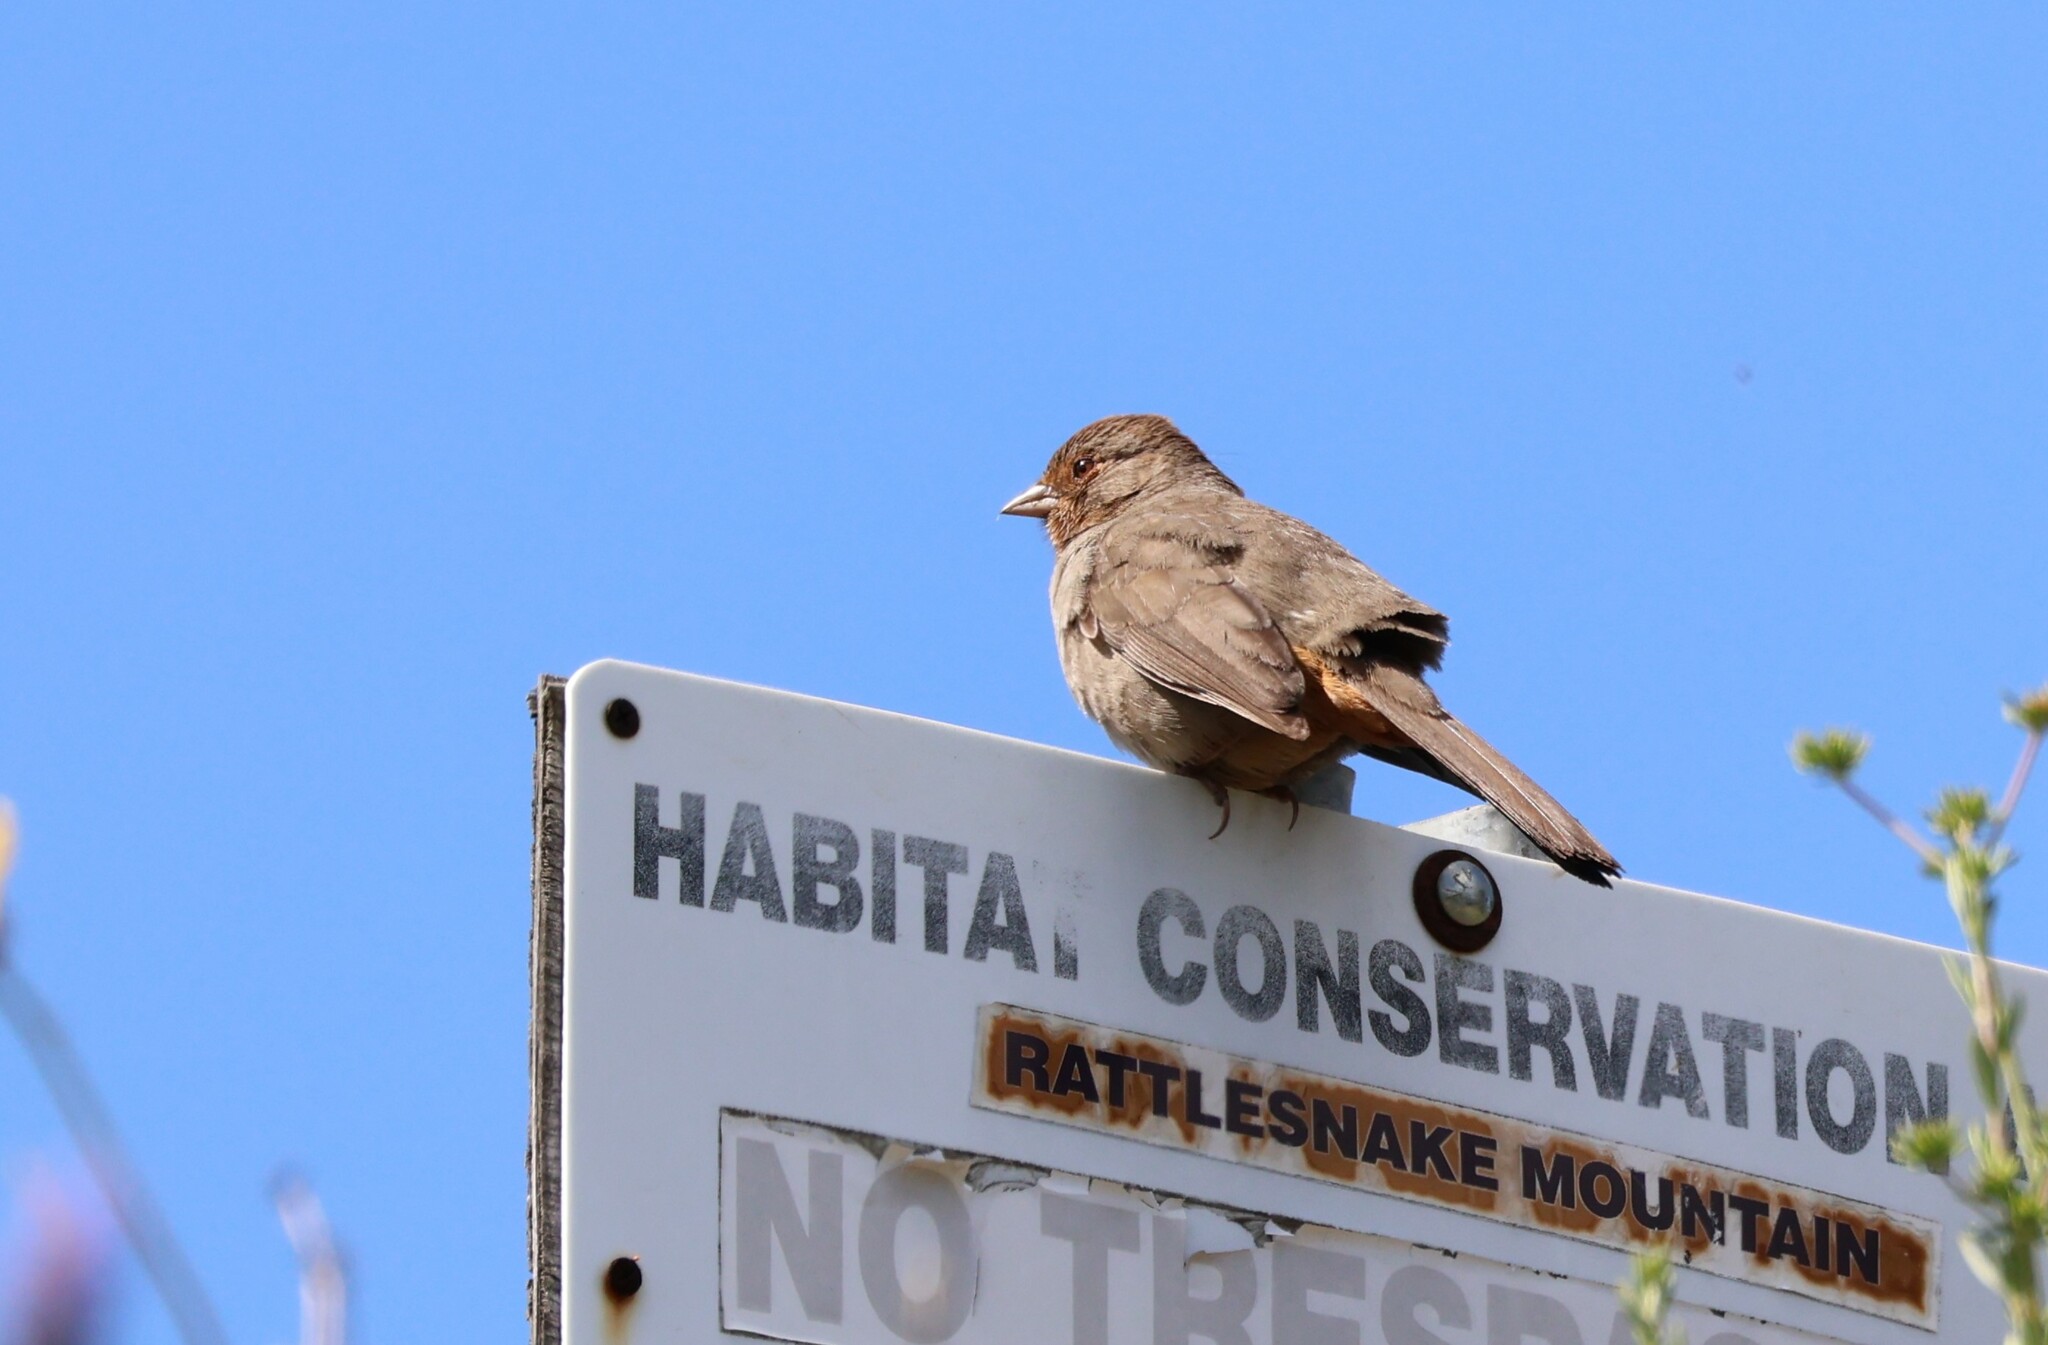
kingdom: Animalia
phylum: Chordata
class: Aves
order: Passeriformes
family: Passerellidae
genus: Melozone
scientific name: Melozone crissalis
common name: California towhee
